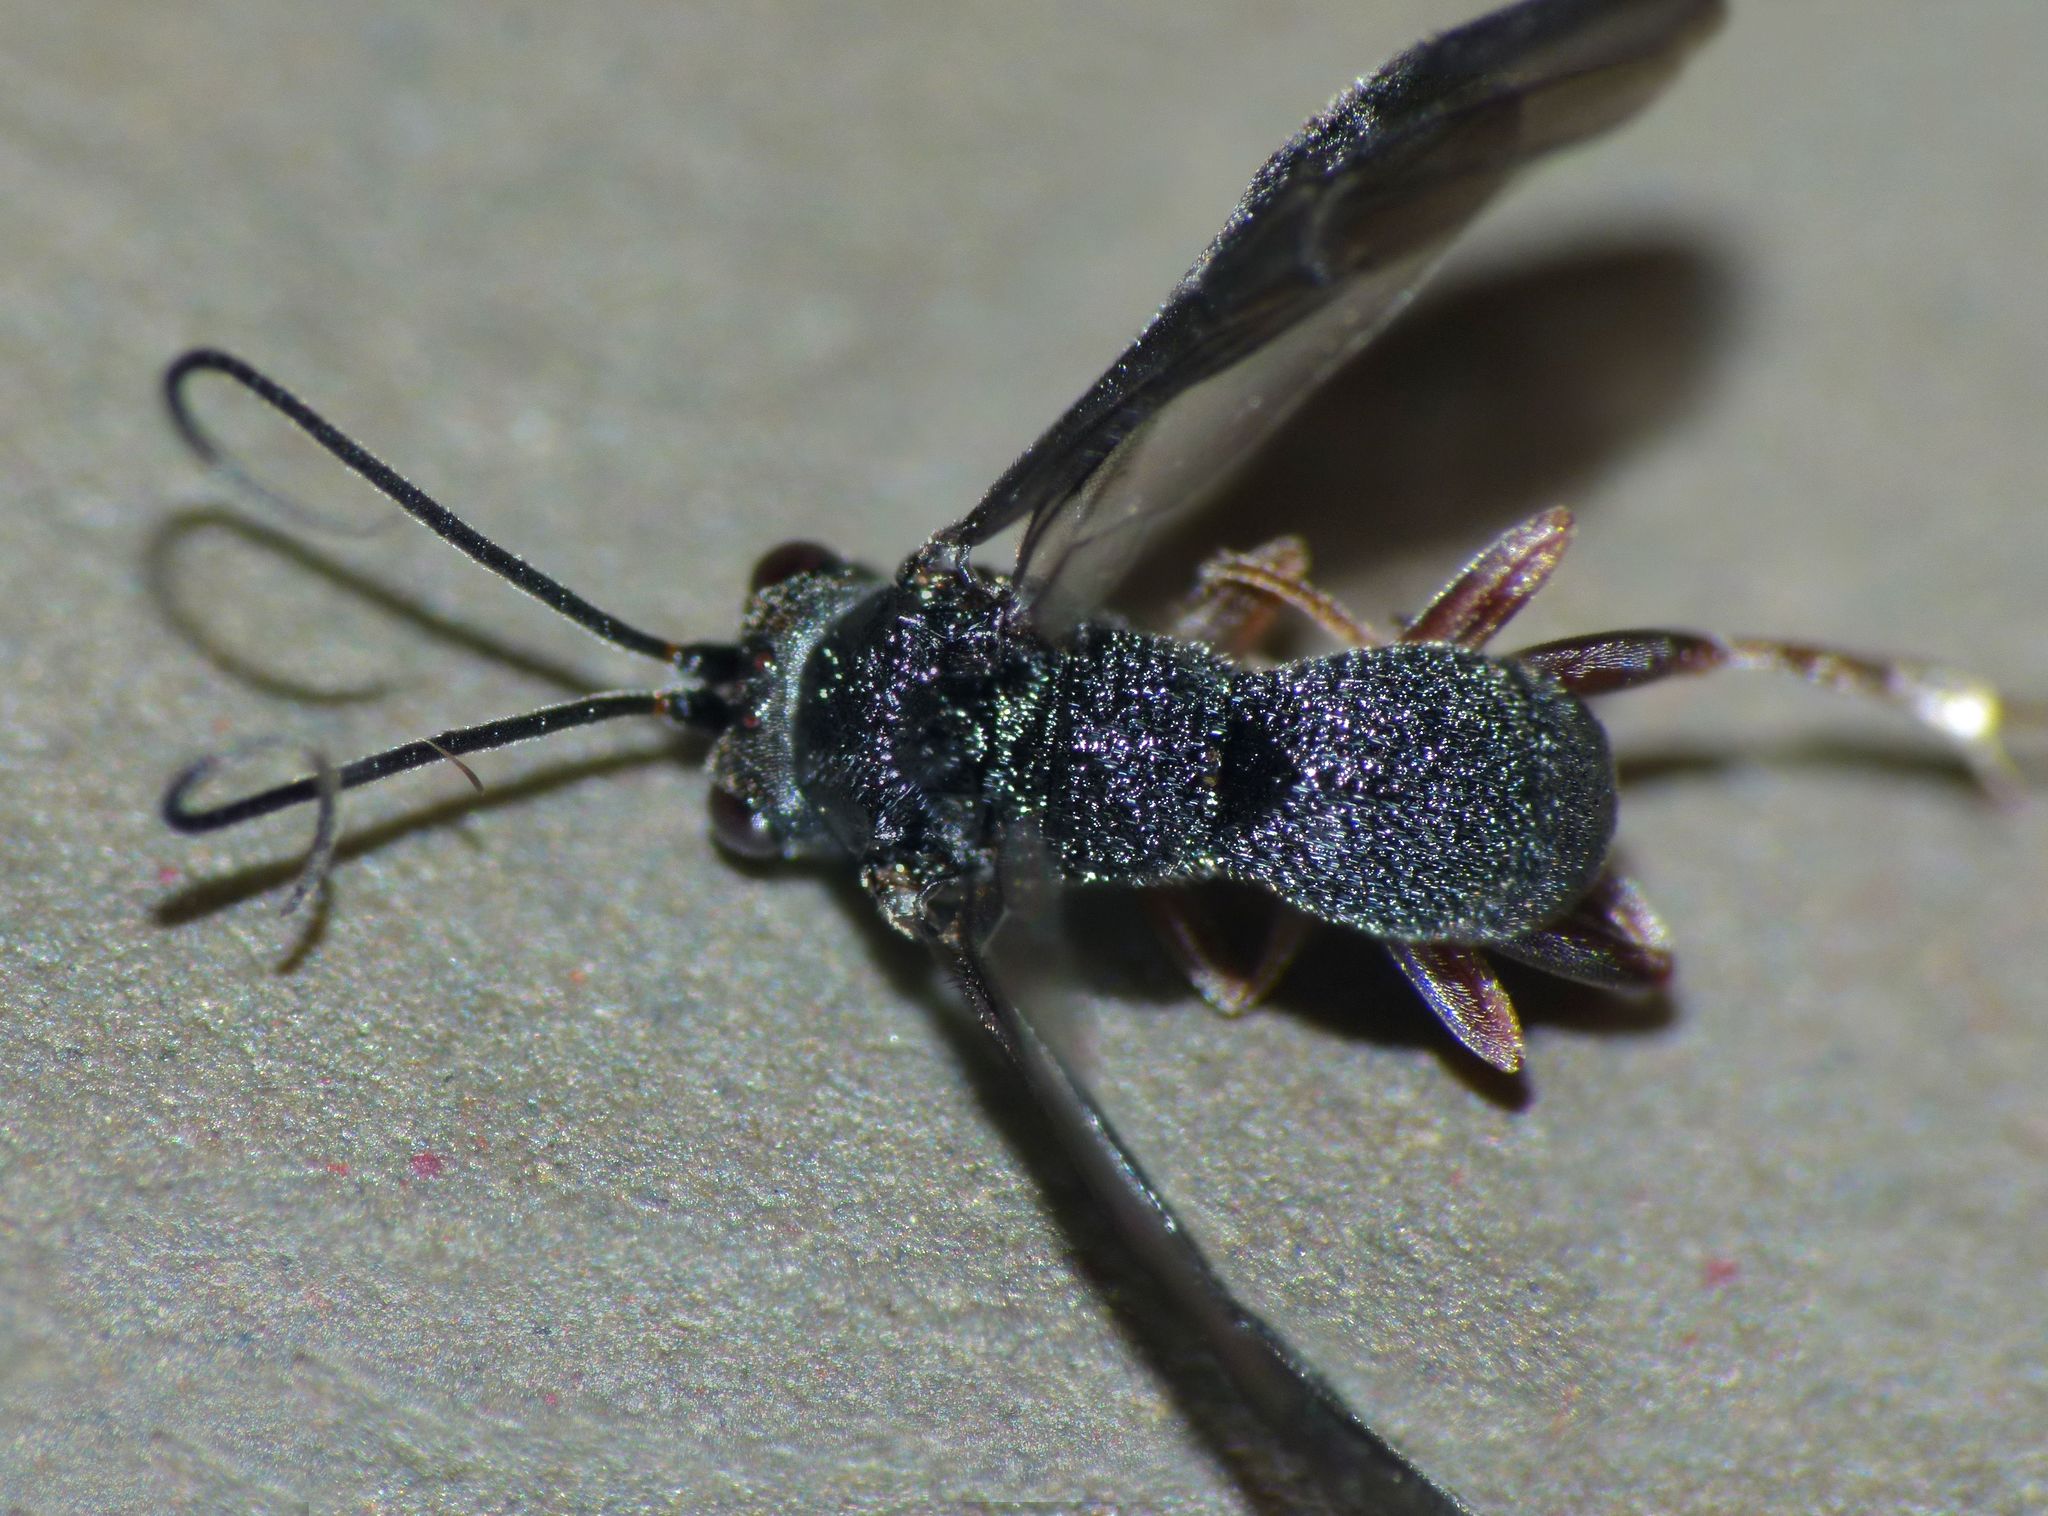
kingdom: Animalia
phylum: Arthropoda
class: Insecta
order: Hymenoptera
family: Braconidae
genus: Ascogaster
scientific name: Ascogaster crenulata
